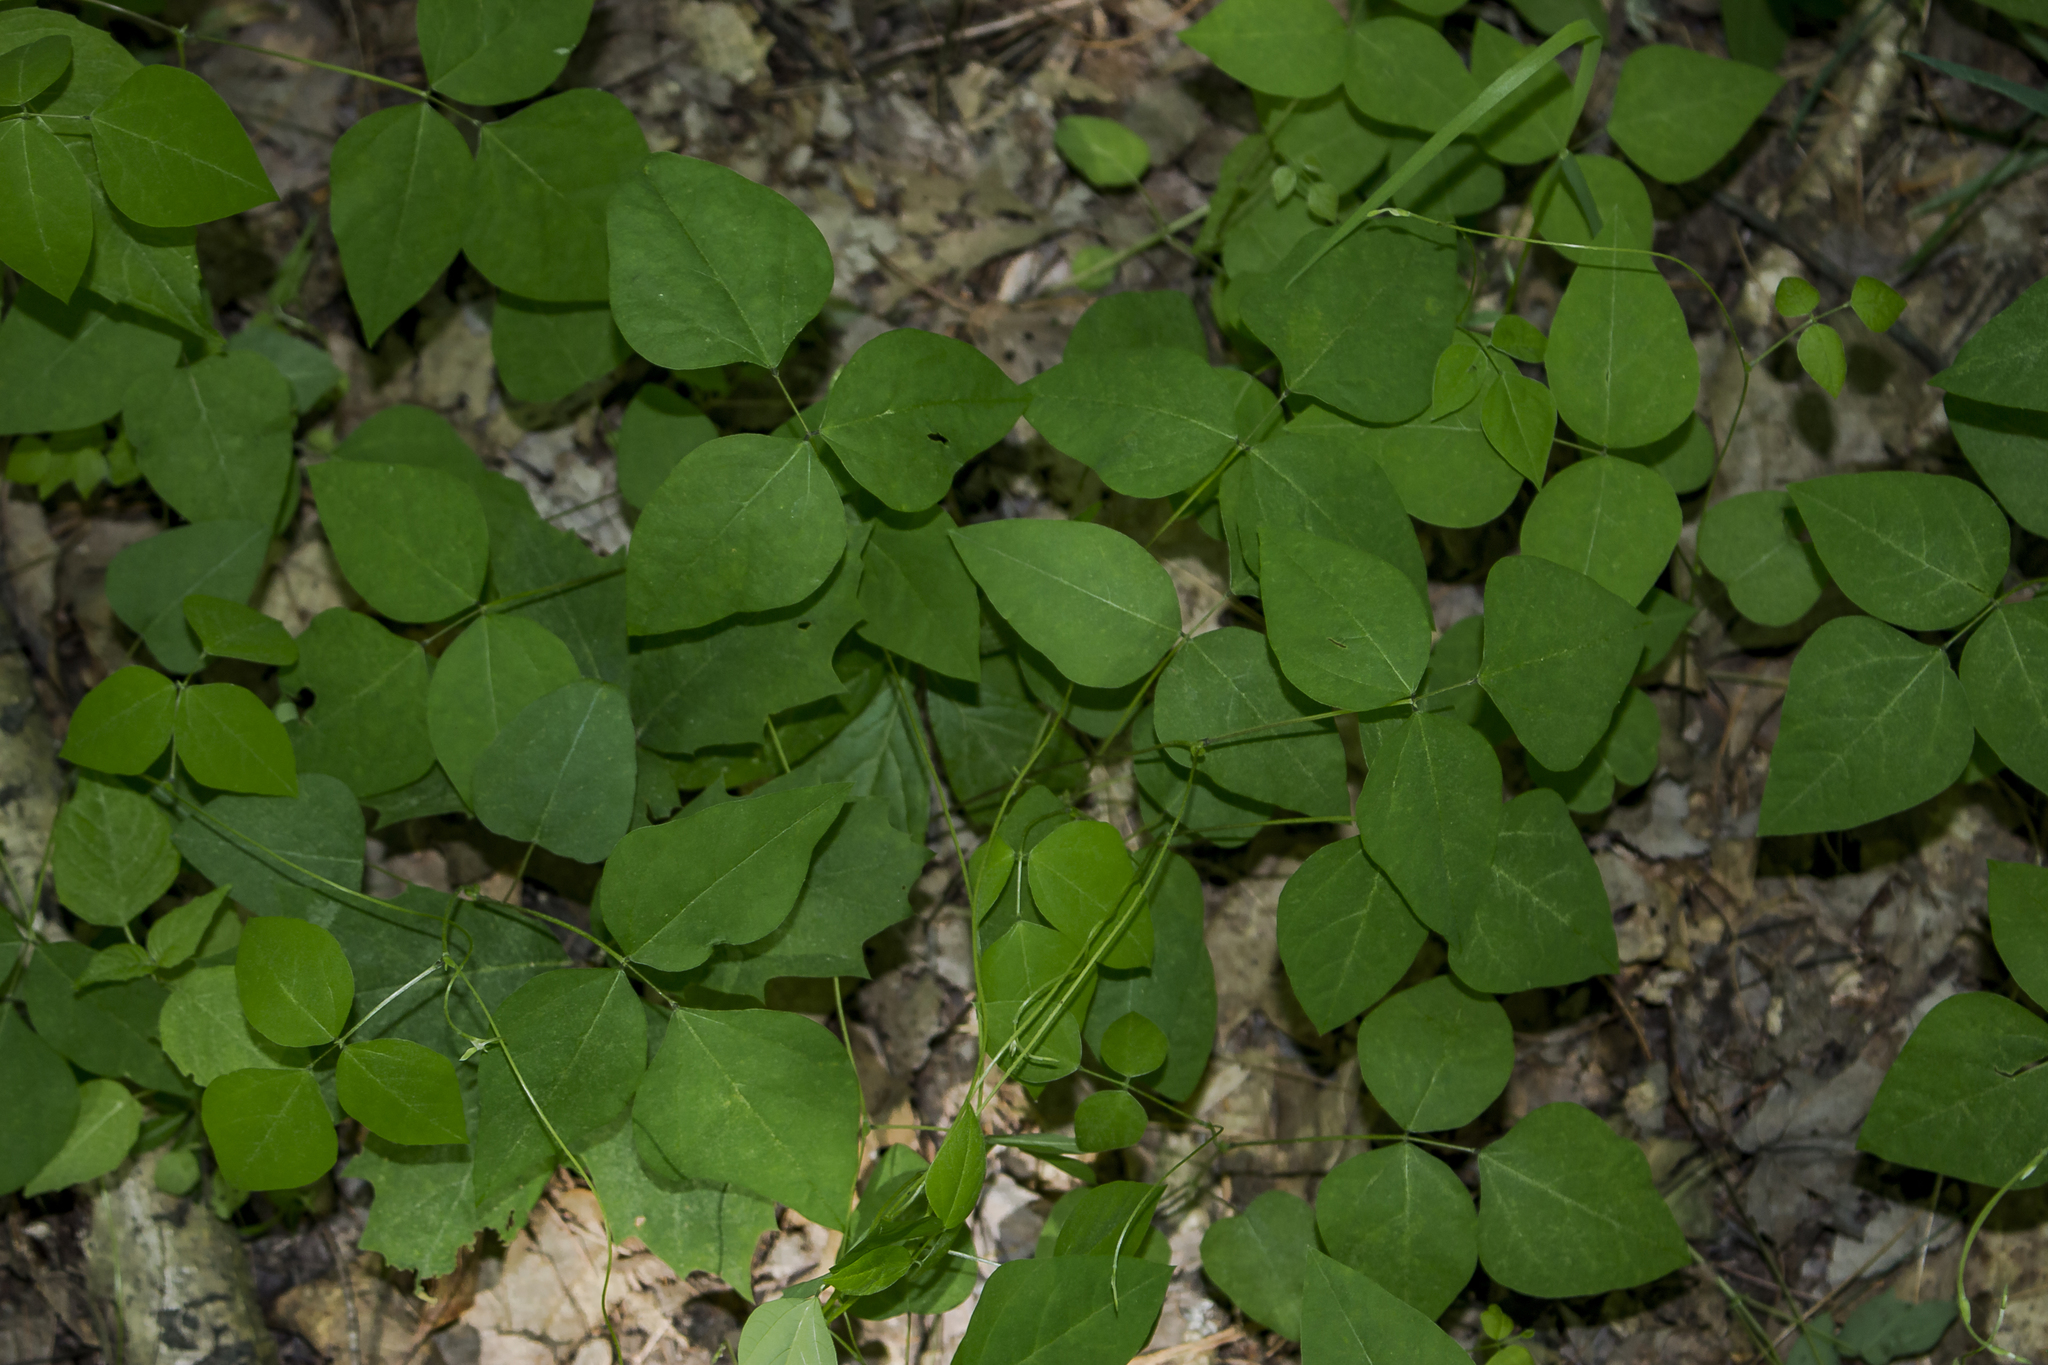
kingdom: Plantae
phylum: Tracheophyta
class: Magnoliopsida
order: Fabales
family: Fabaceae
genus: Amphicarpaea
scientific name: Amphicarpaea bracteata
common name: American hog peanut
